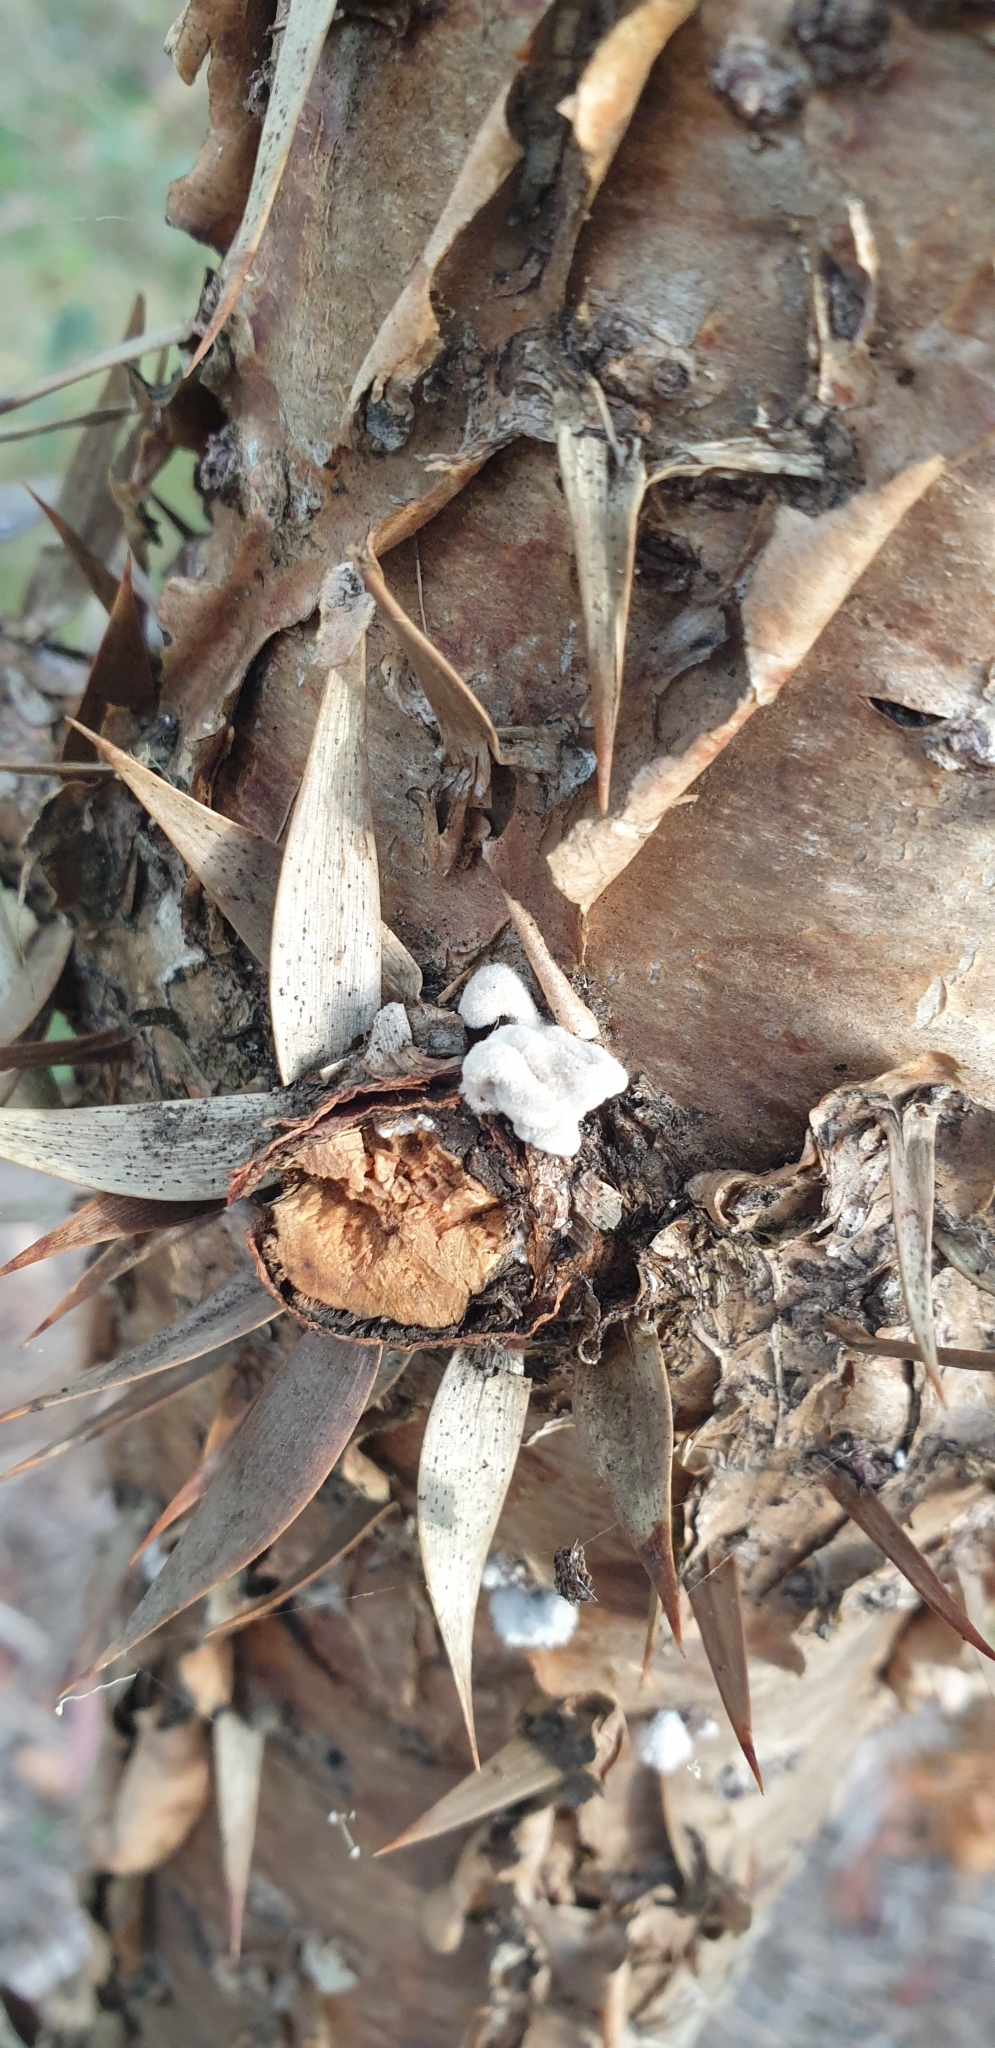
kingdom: Fungi
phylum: Basidiomycota
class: Agaricomycetes
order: Agaricales
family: Schizophyllaceae
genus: Schizophyllum
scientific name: Schizophyllum commune
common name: Common porecrust
